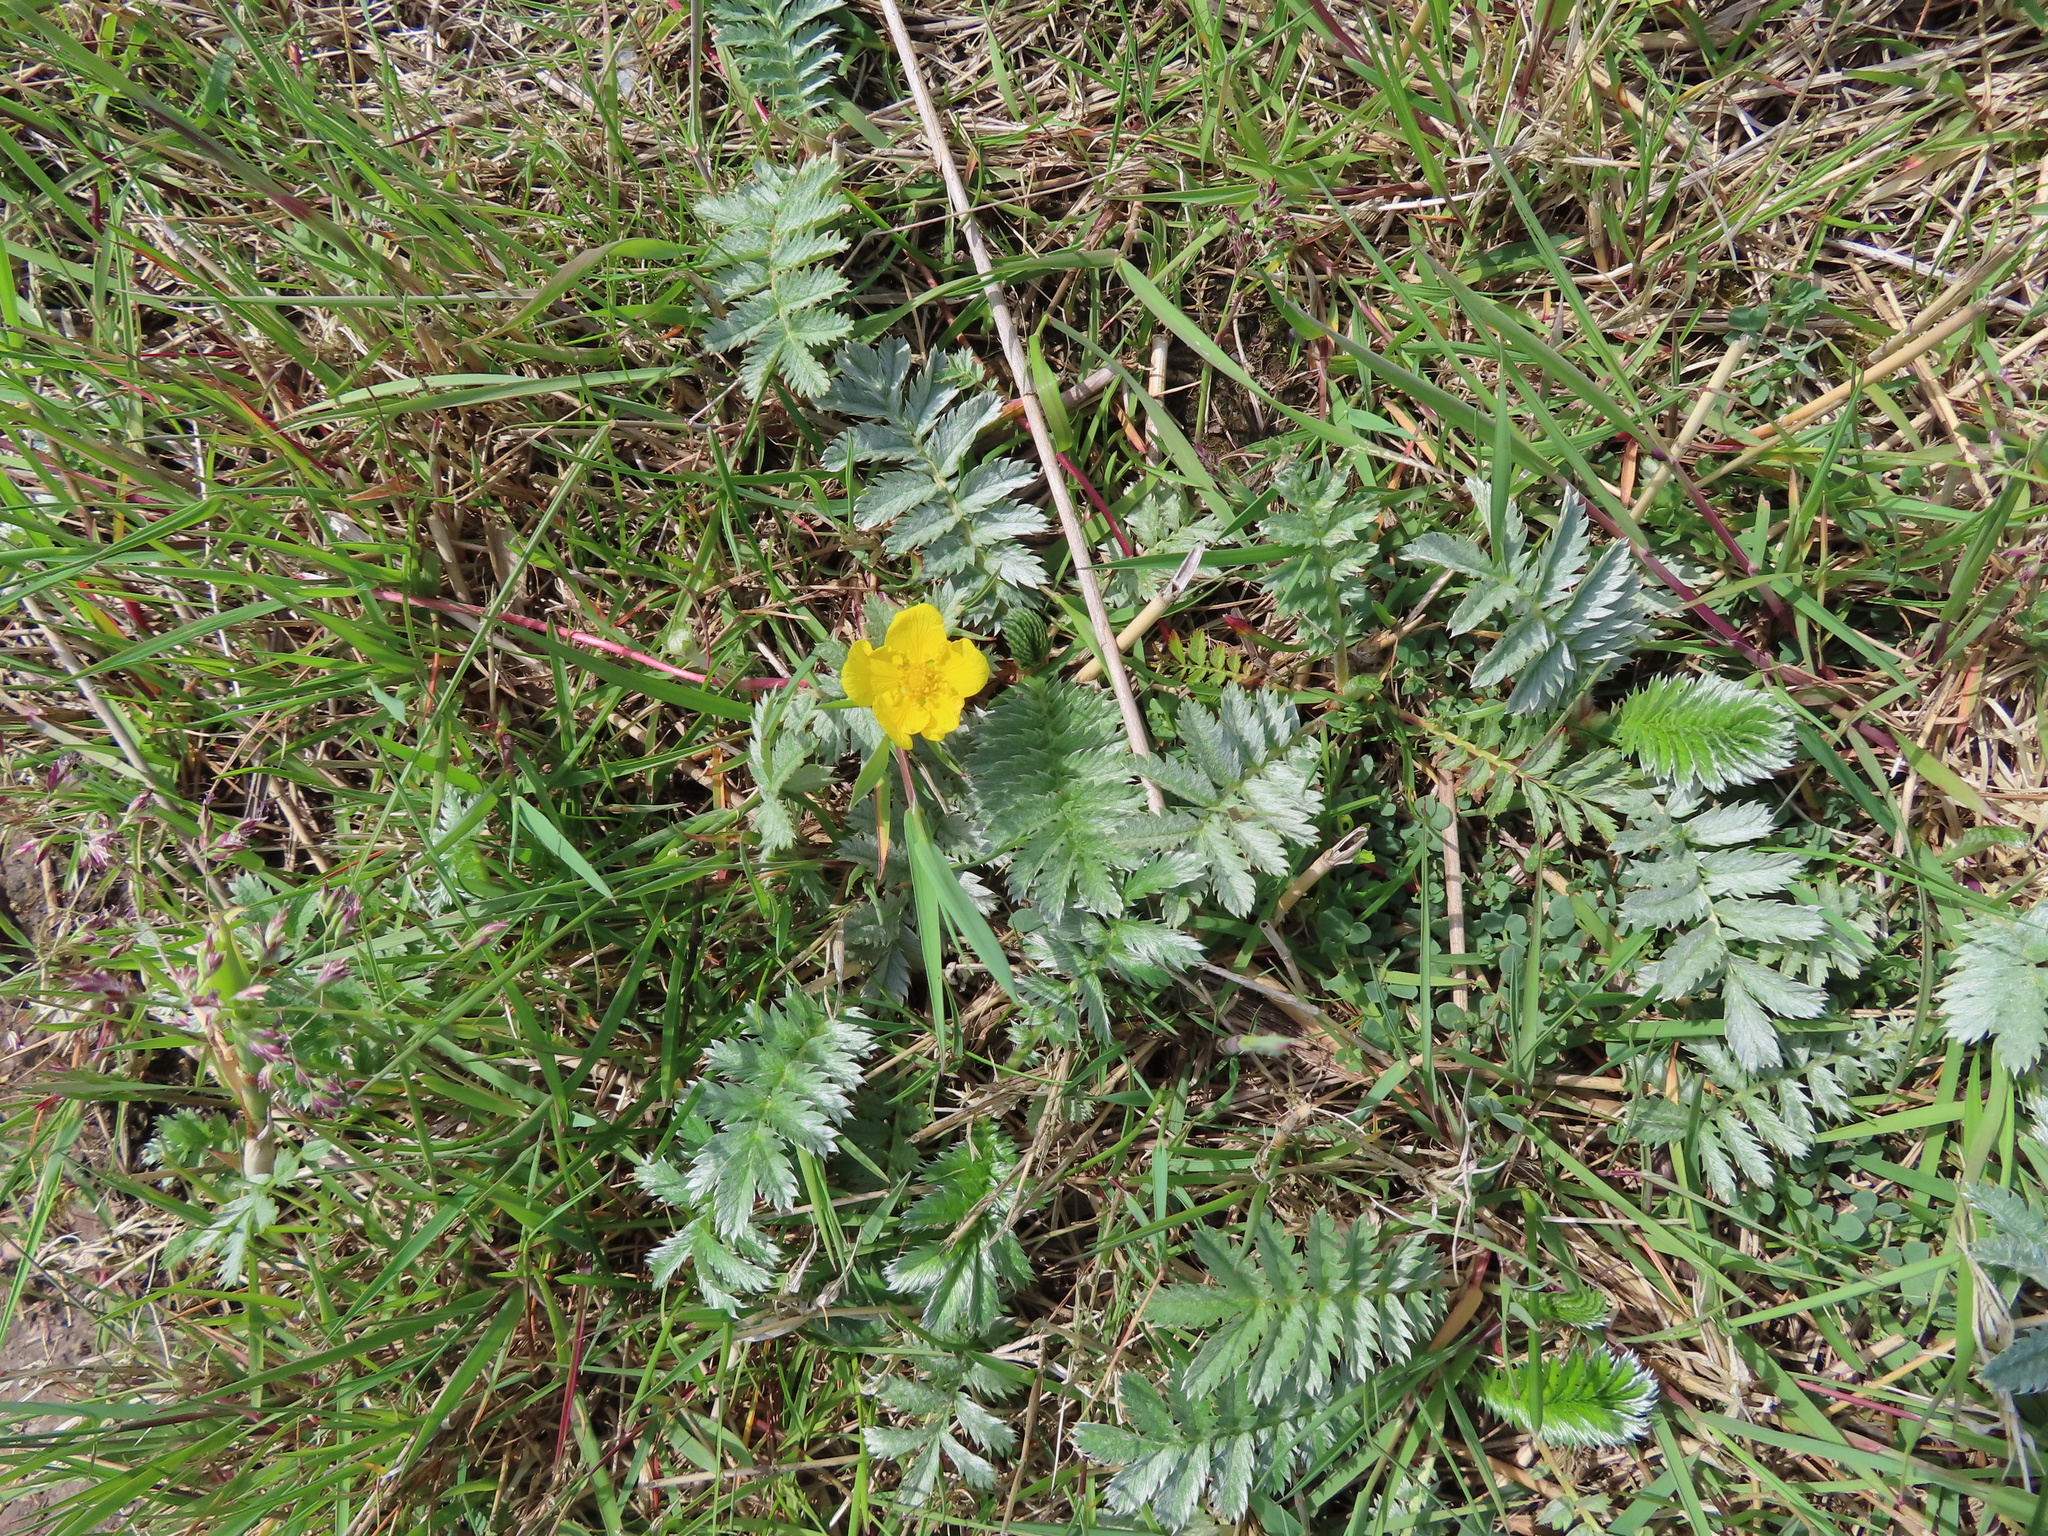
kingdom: Plantae
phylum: Tracheophyta
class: Magnoliopsida
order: Rosales
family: Rosaceae
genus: Argentina
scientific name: Argentina anserina
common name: Common silverweed
